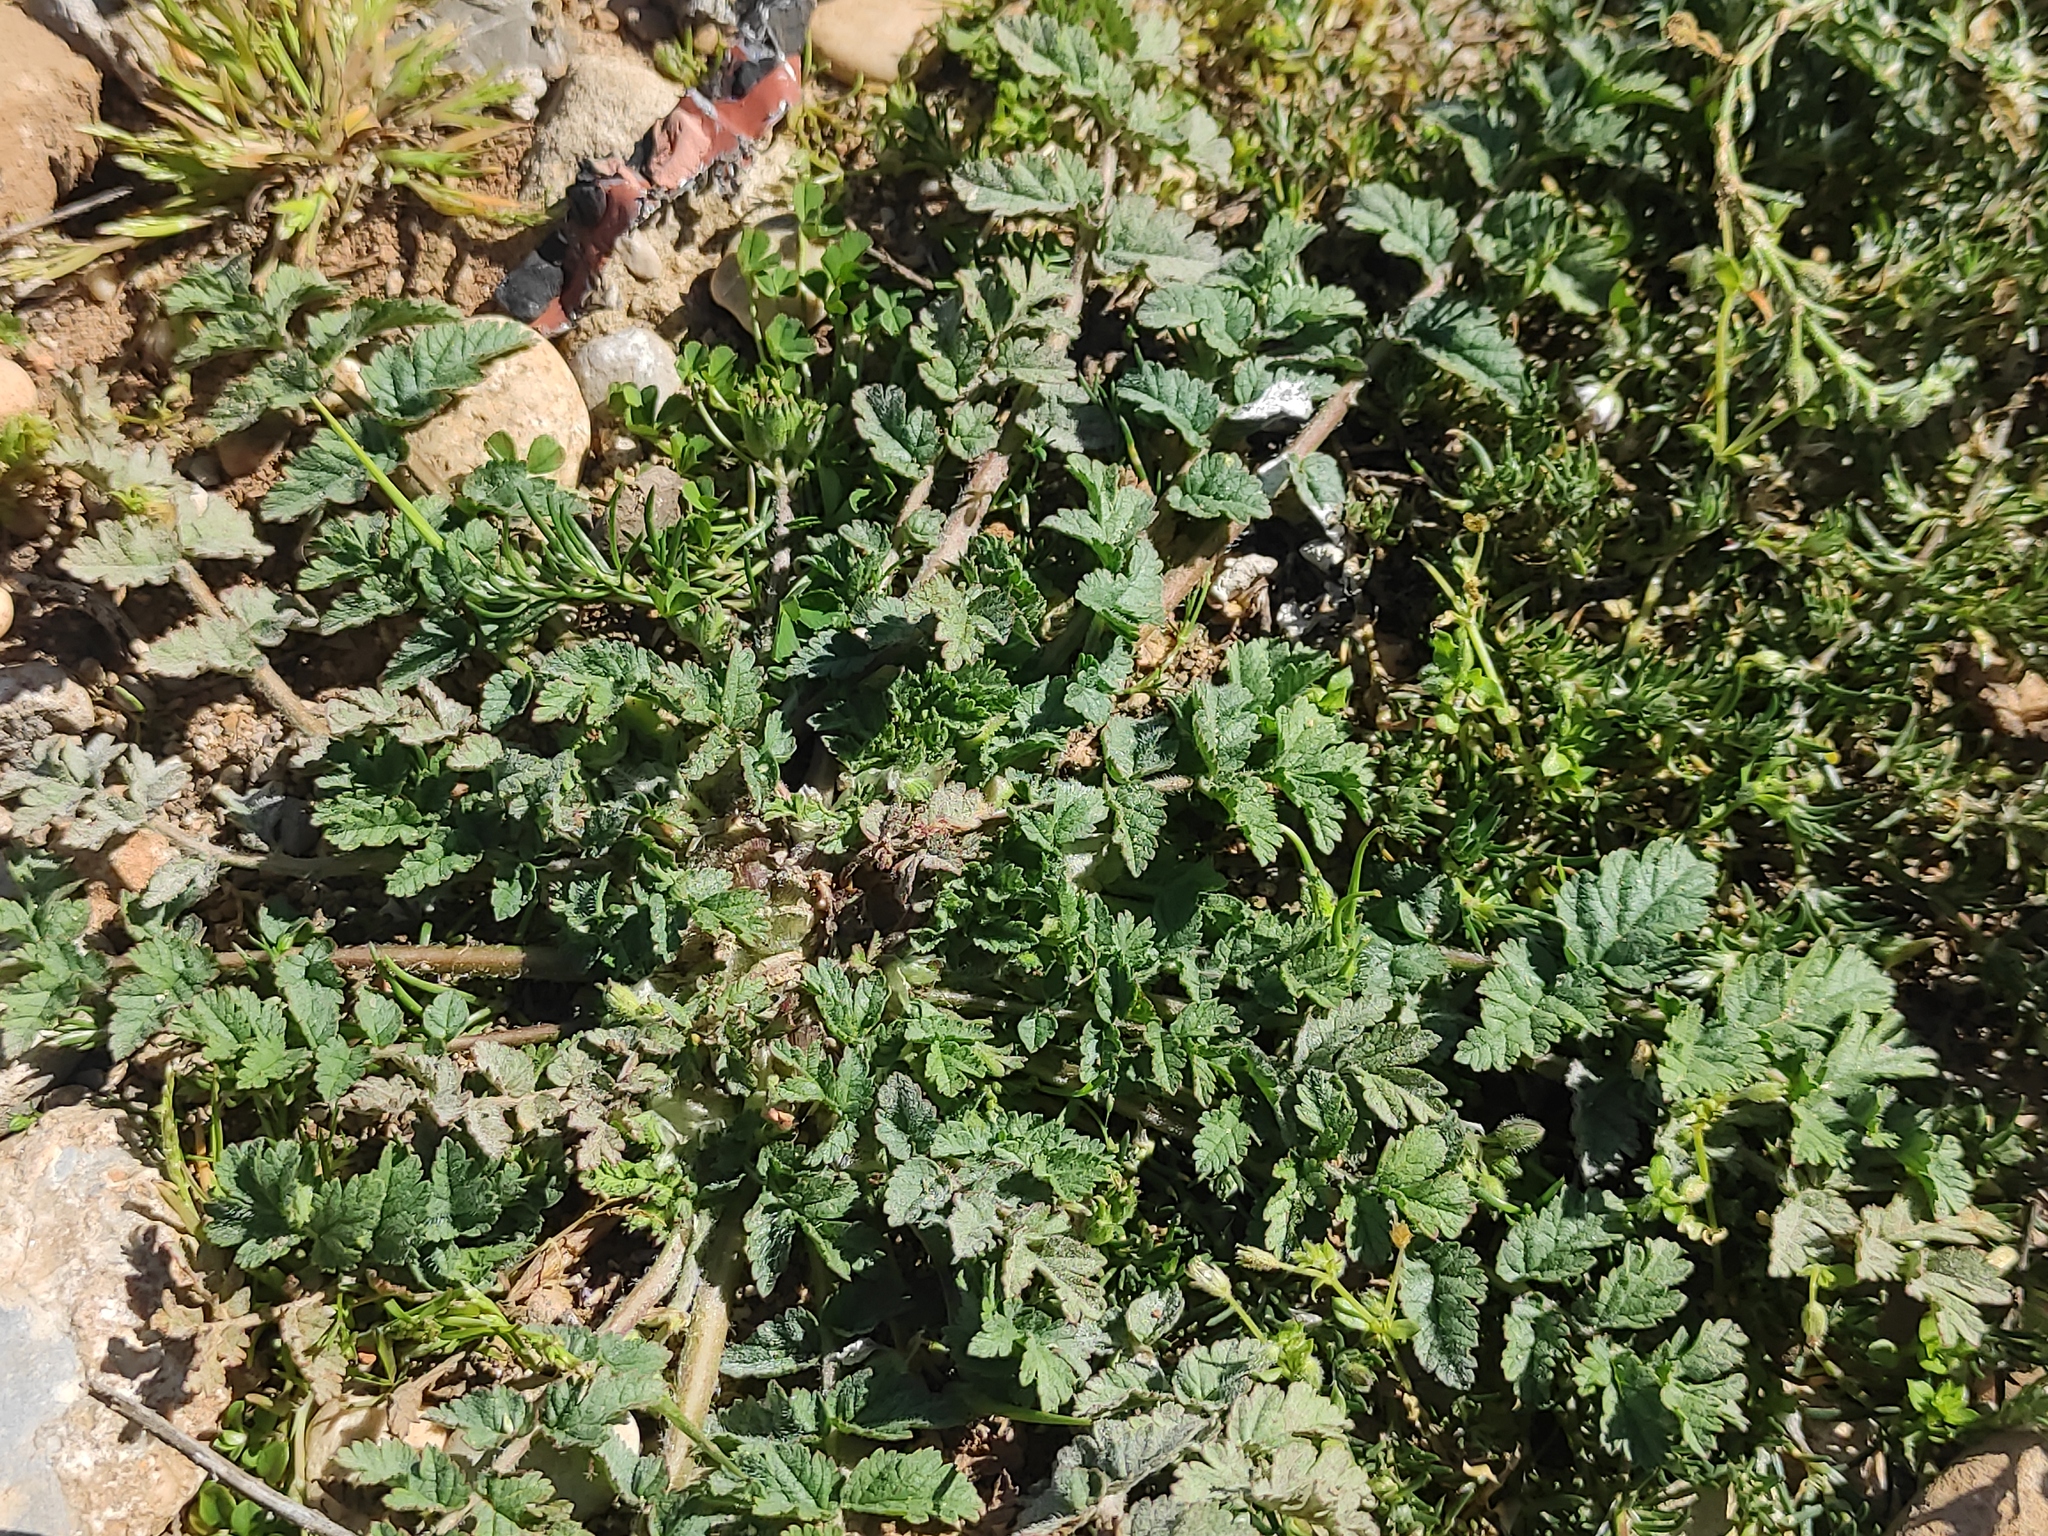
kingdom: Plantae
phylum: Tracheophyta
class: Magnoliopsida
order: Geraniales
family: Geraniaceae
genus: Erodium
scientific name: Erodium moschatum
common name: Musk stork's-bill
